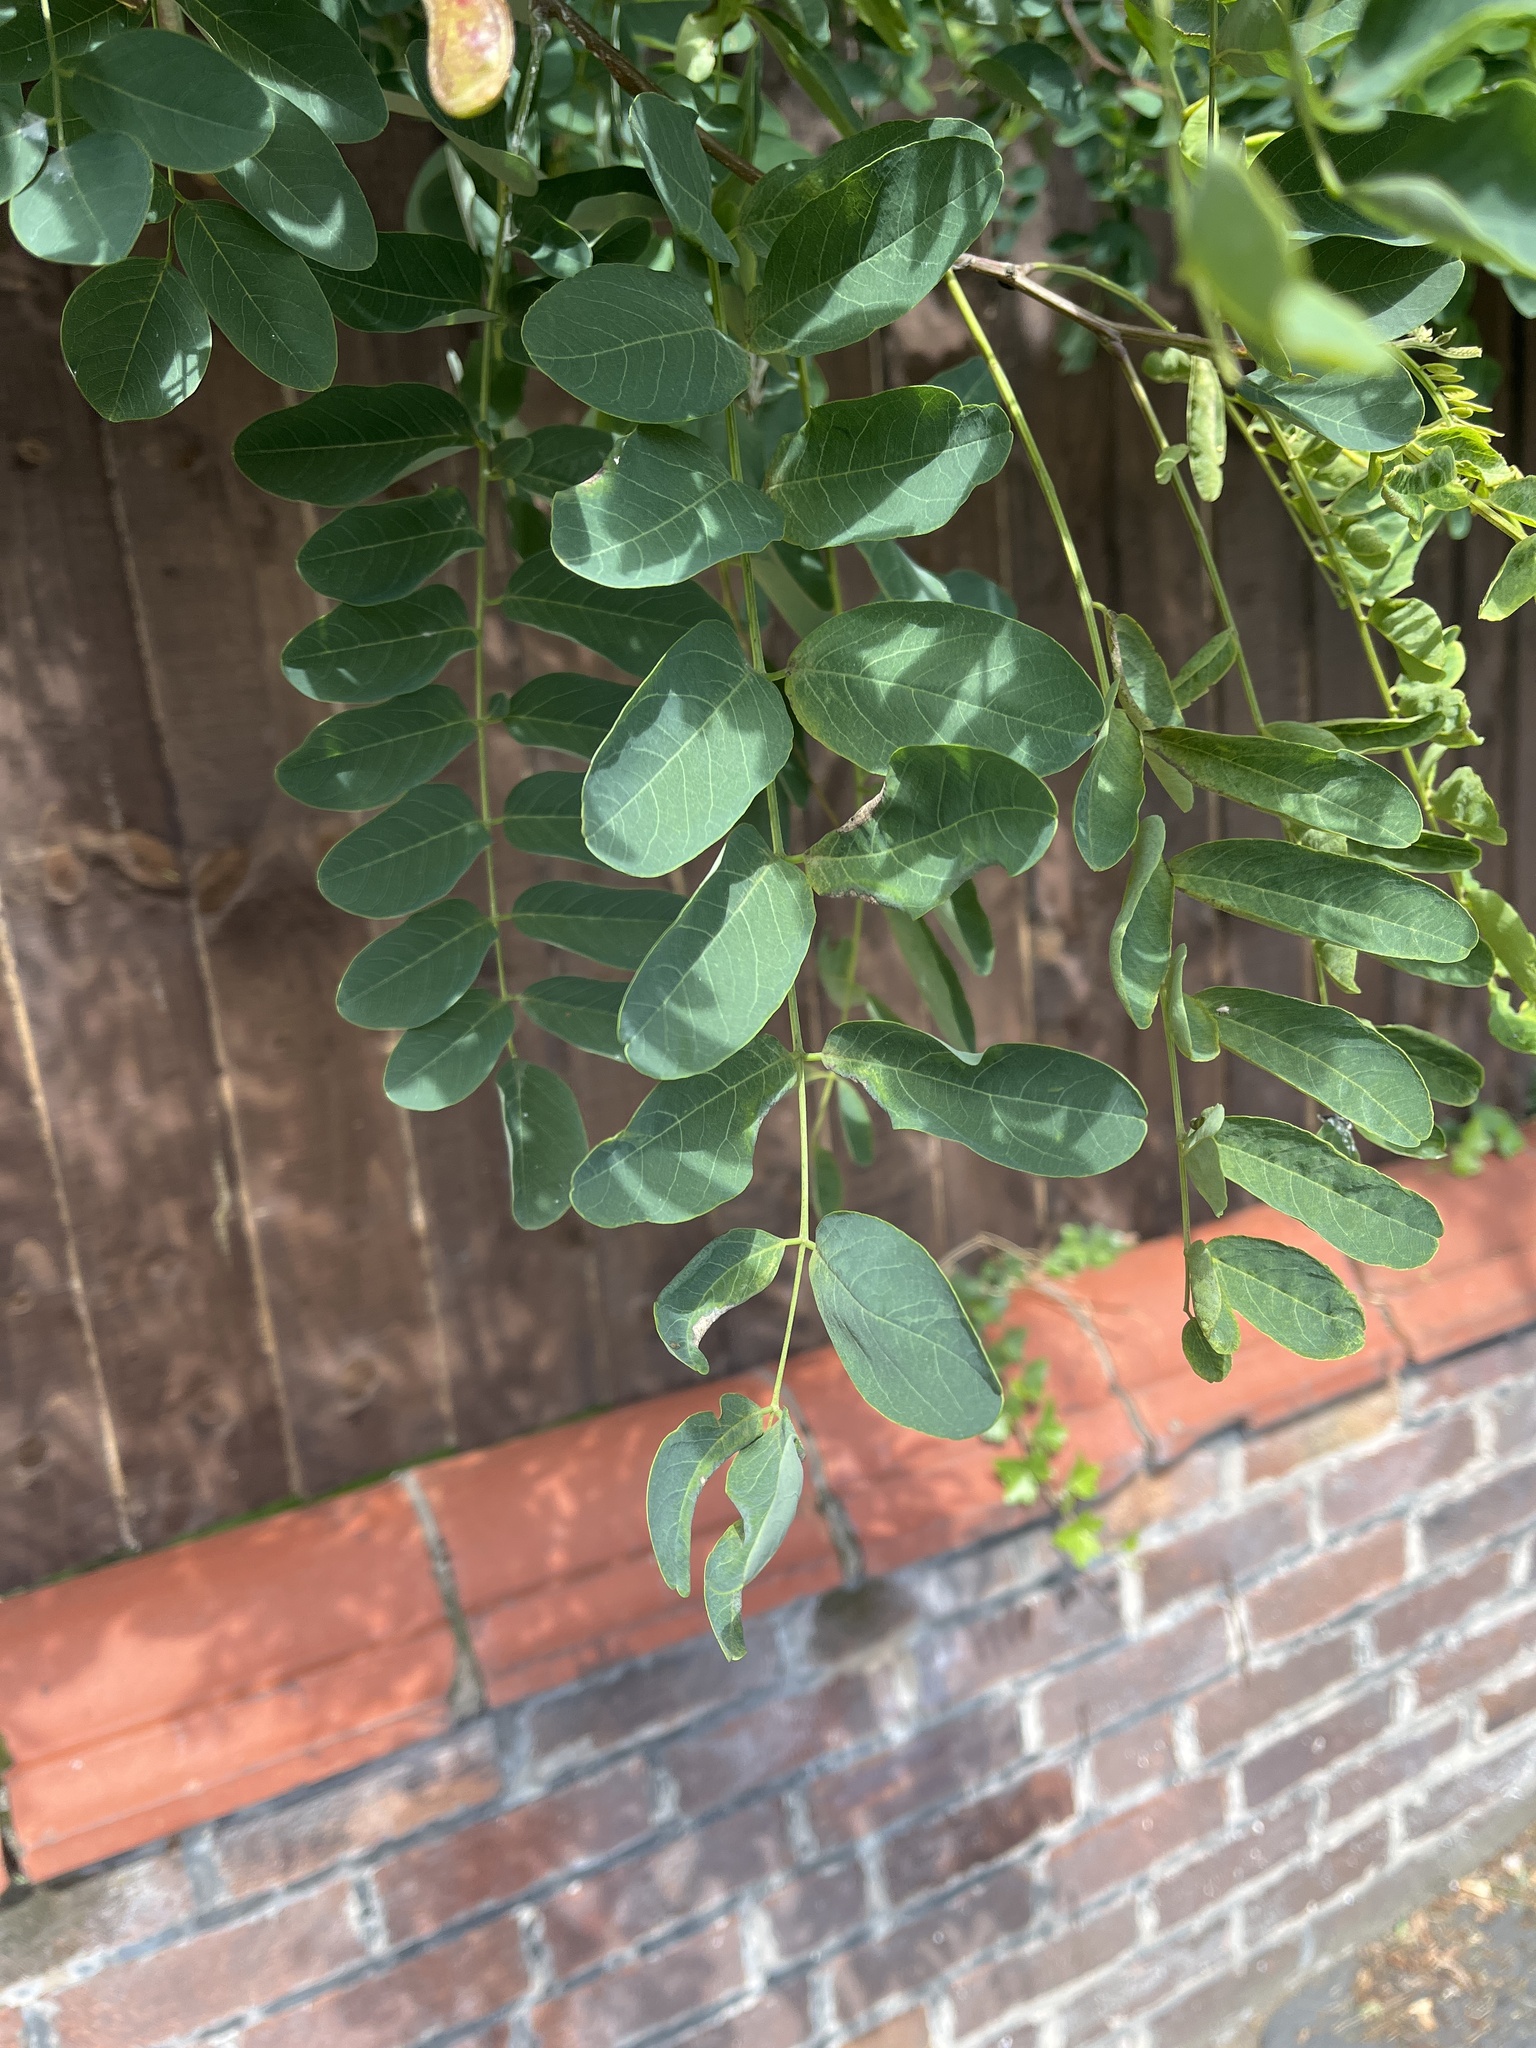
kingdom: Animalia
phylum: Arthropoda
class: Insecta
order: Diptera
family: Cecidomyiidae
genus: Obolodiplosis
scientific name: Obolodiplosis robiniae
